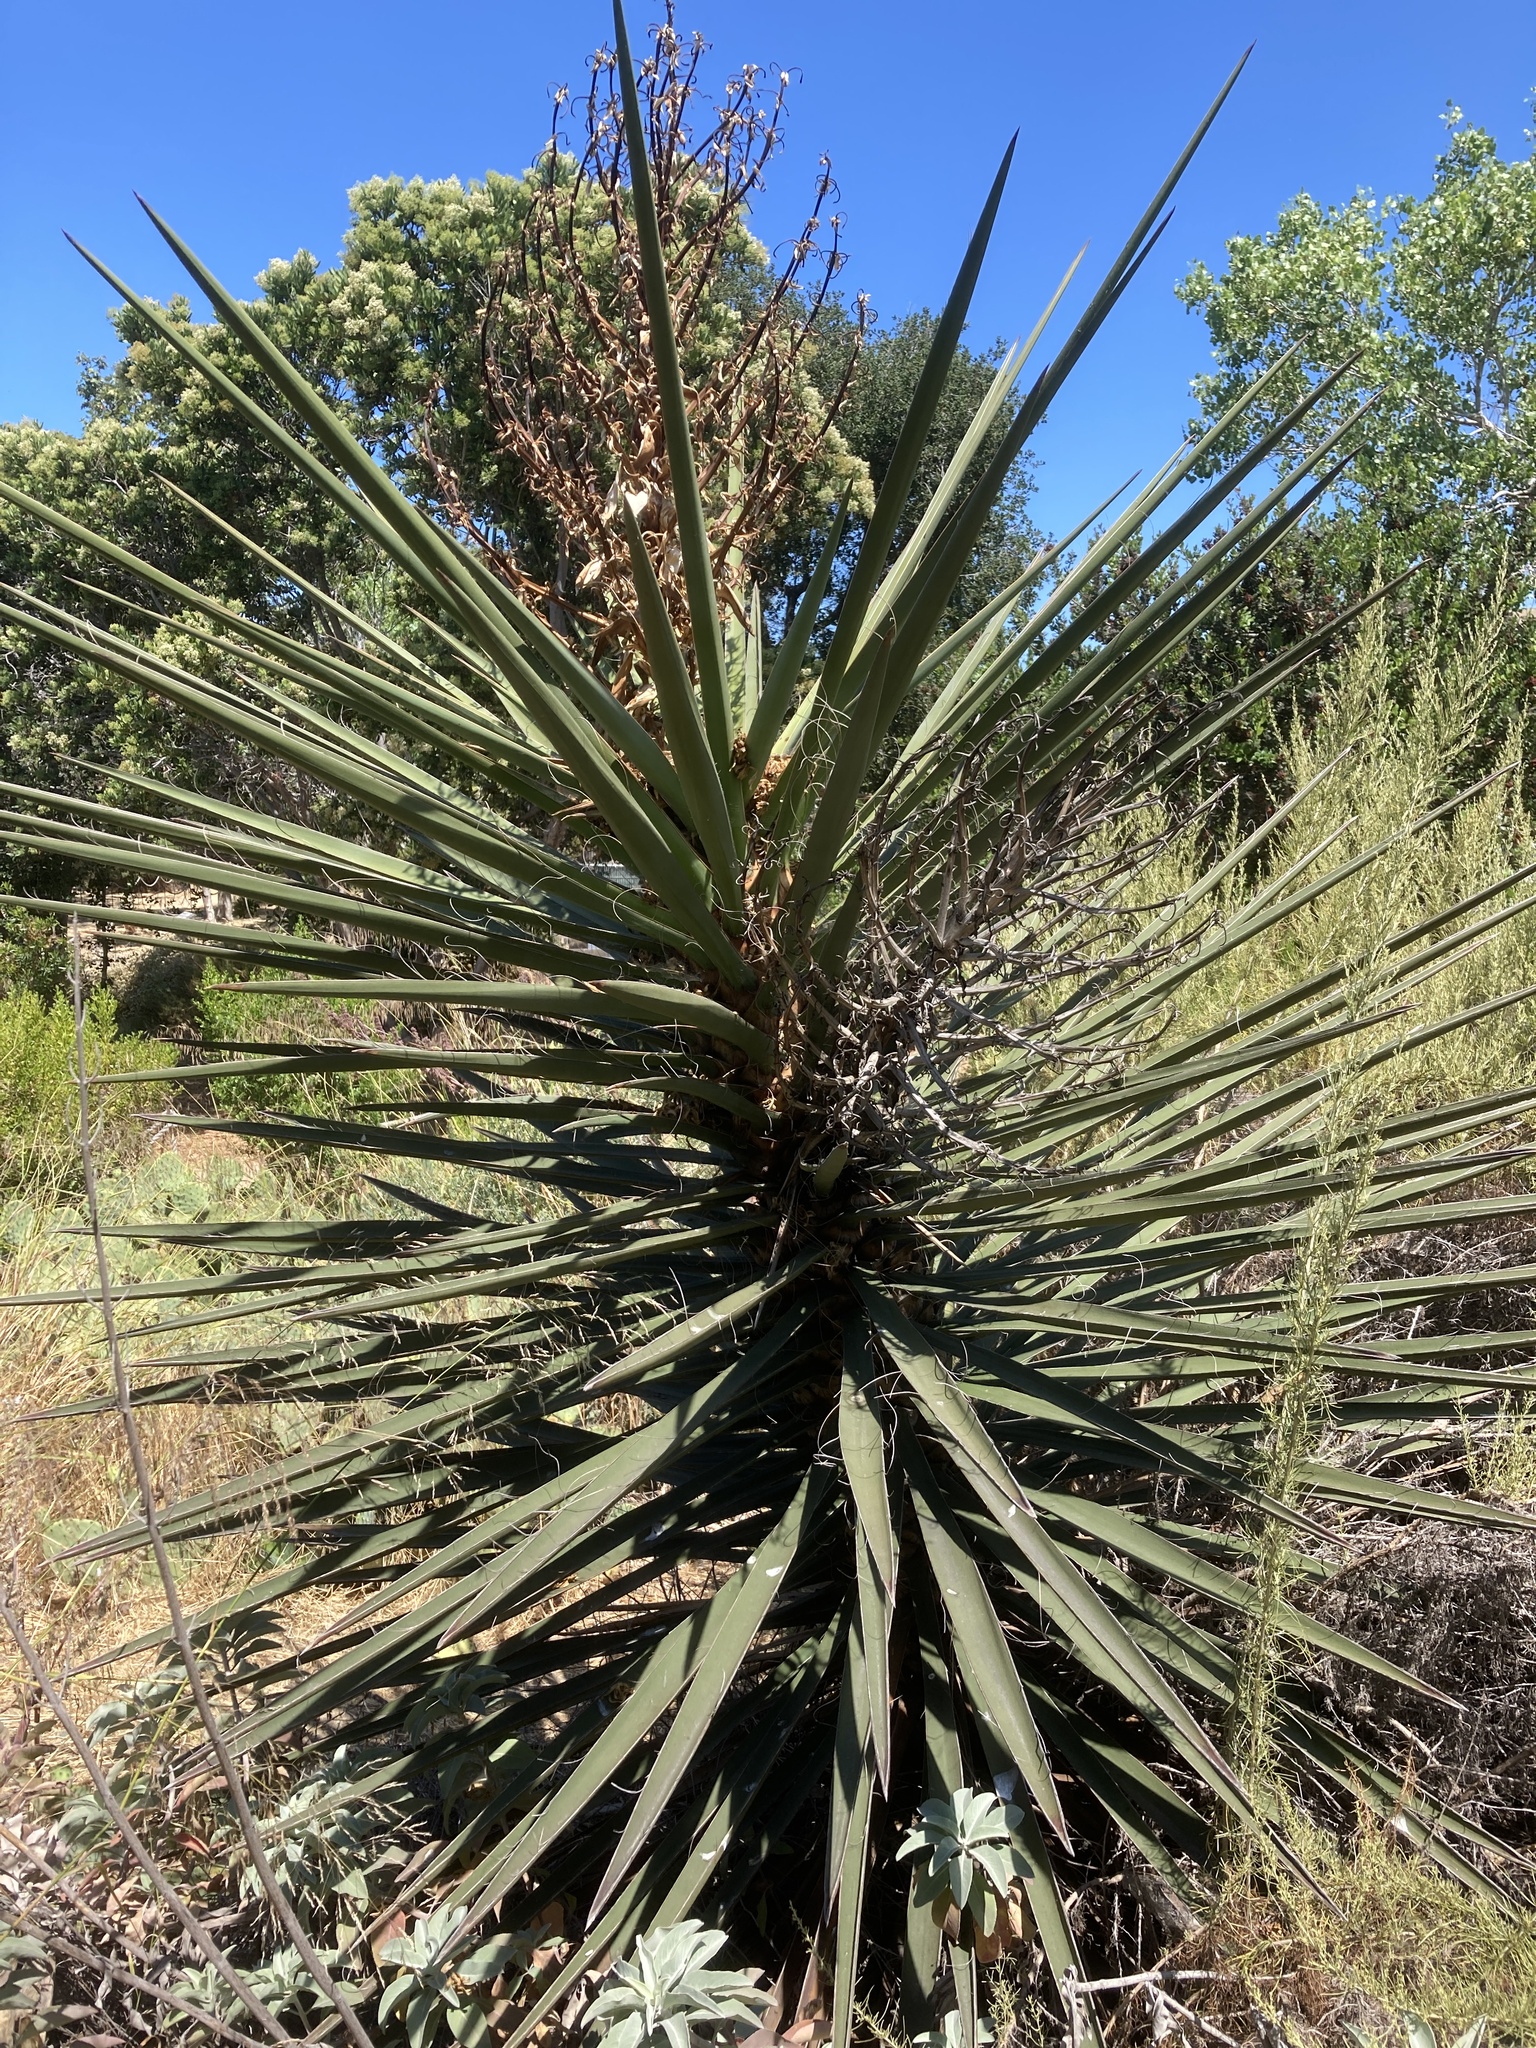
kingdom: Plantae
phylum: Tracheophyta
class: Liliopsida
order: Asparagales
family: Asparagaceae
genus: Yucca
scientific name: Yucca schidigera
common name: Mojave yucca
